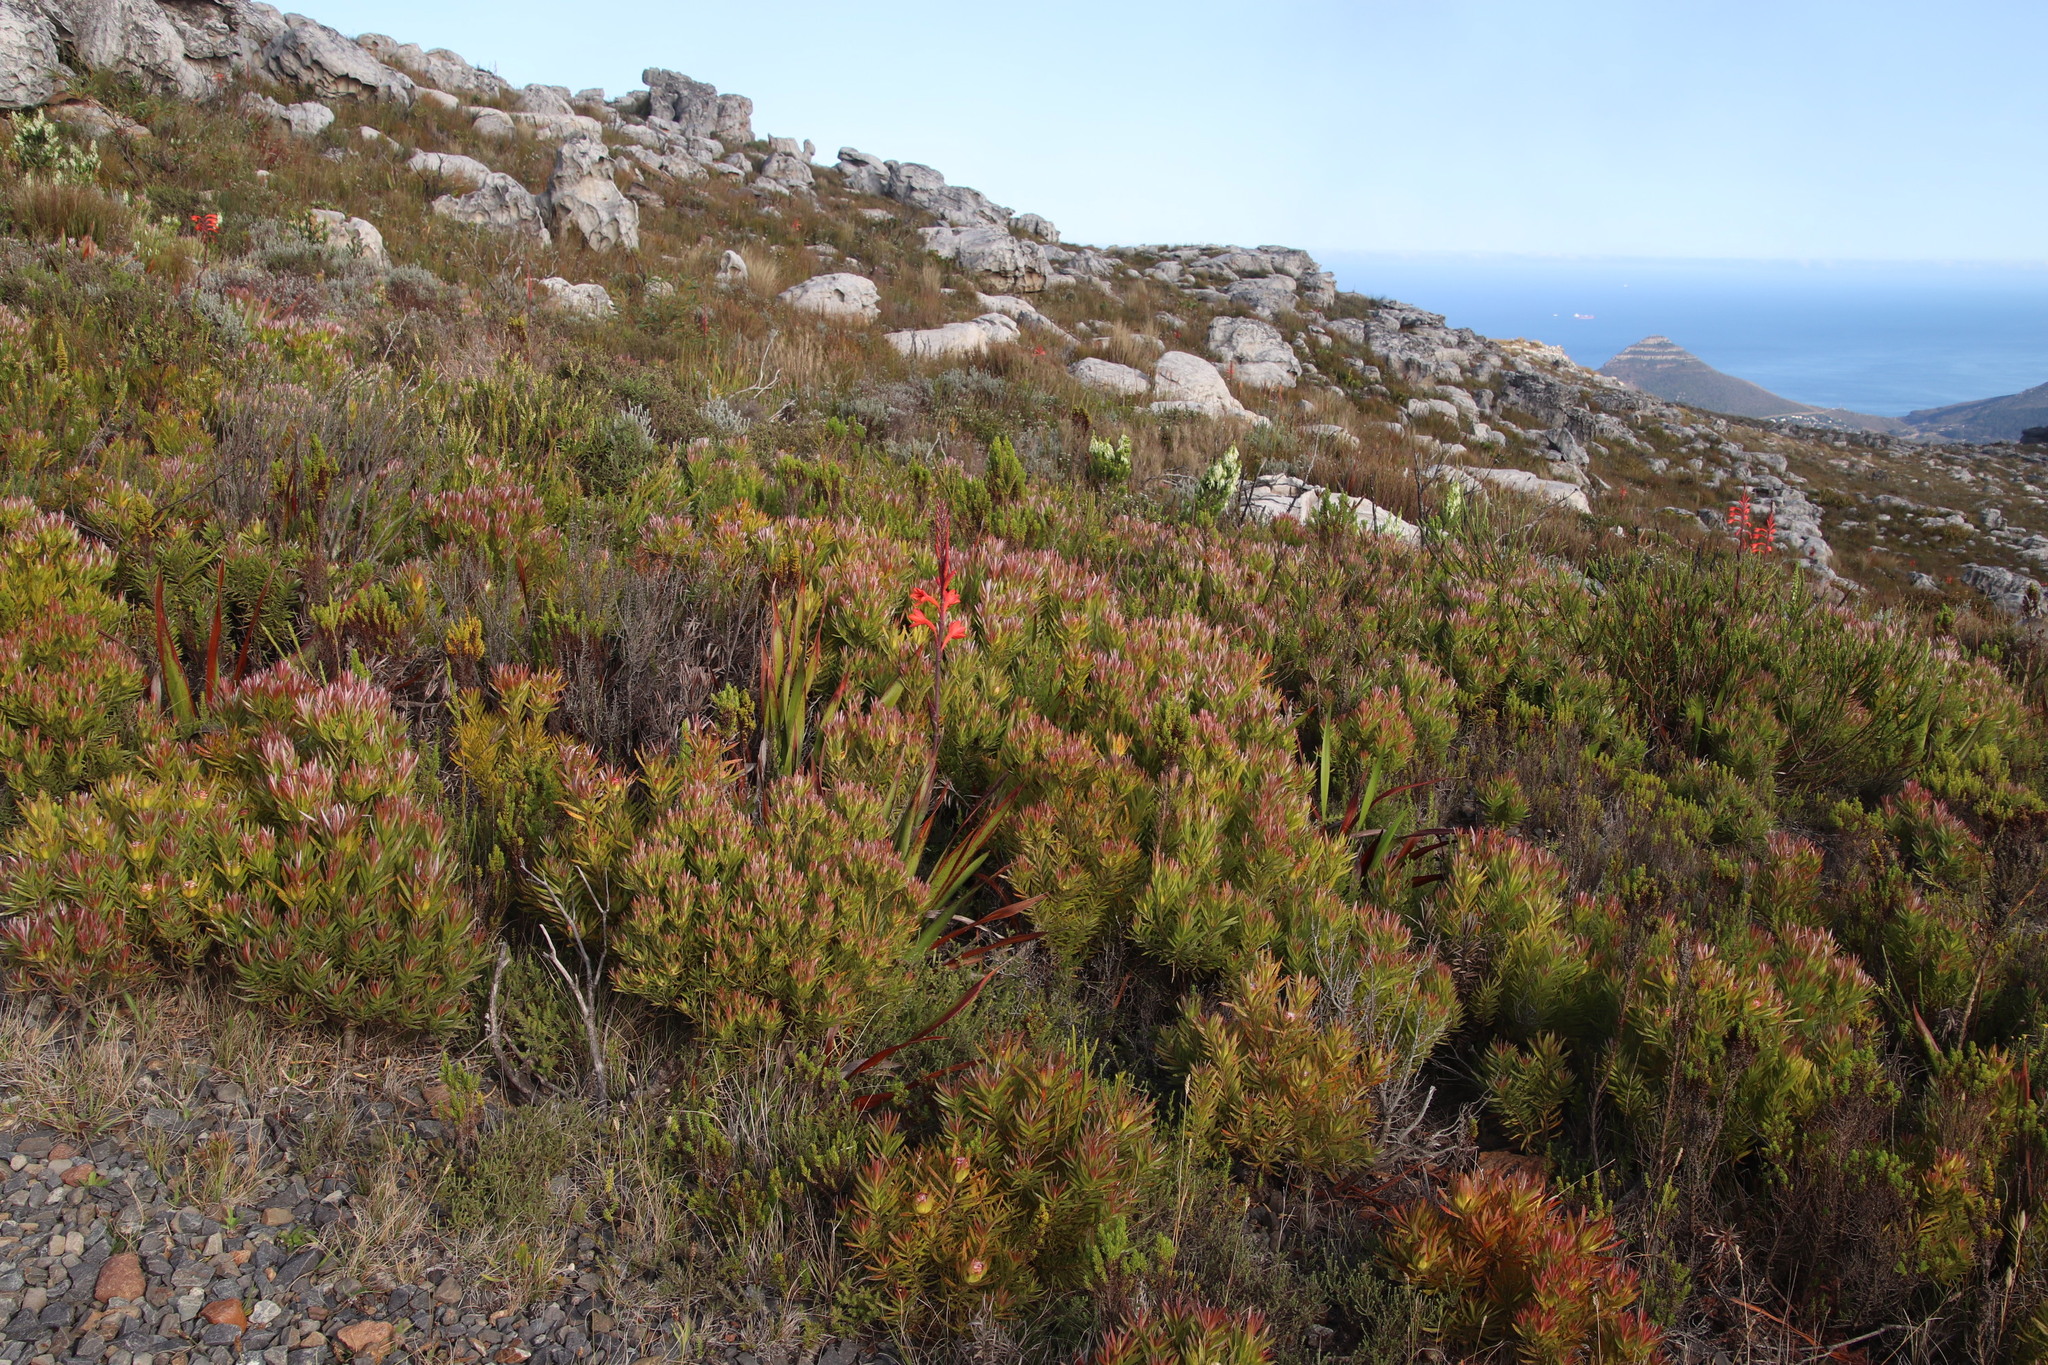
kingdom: Plantae
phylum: Tracheophyta
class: Magnoliopsida
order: Proteales
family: Proteaceae
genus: Leucadendron
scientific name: Leucadendron xanthoconus
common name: Sickle-leaf conebush
